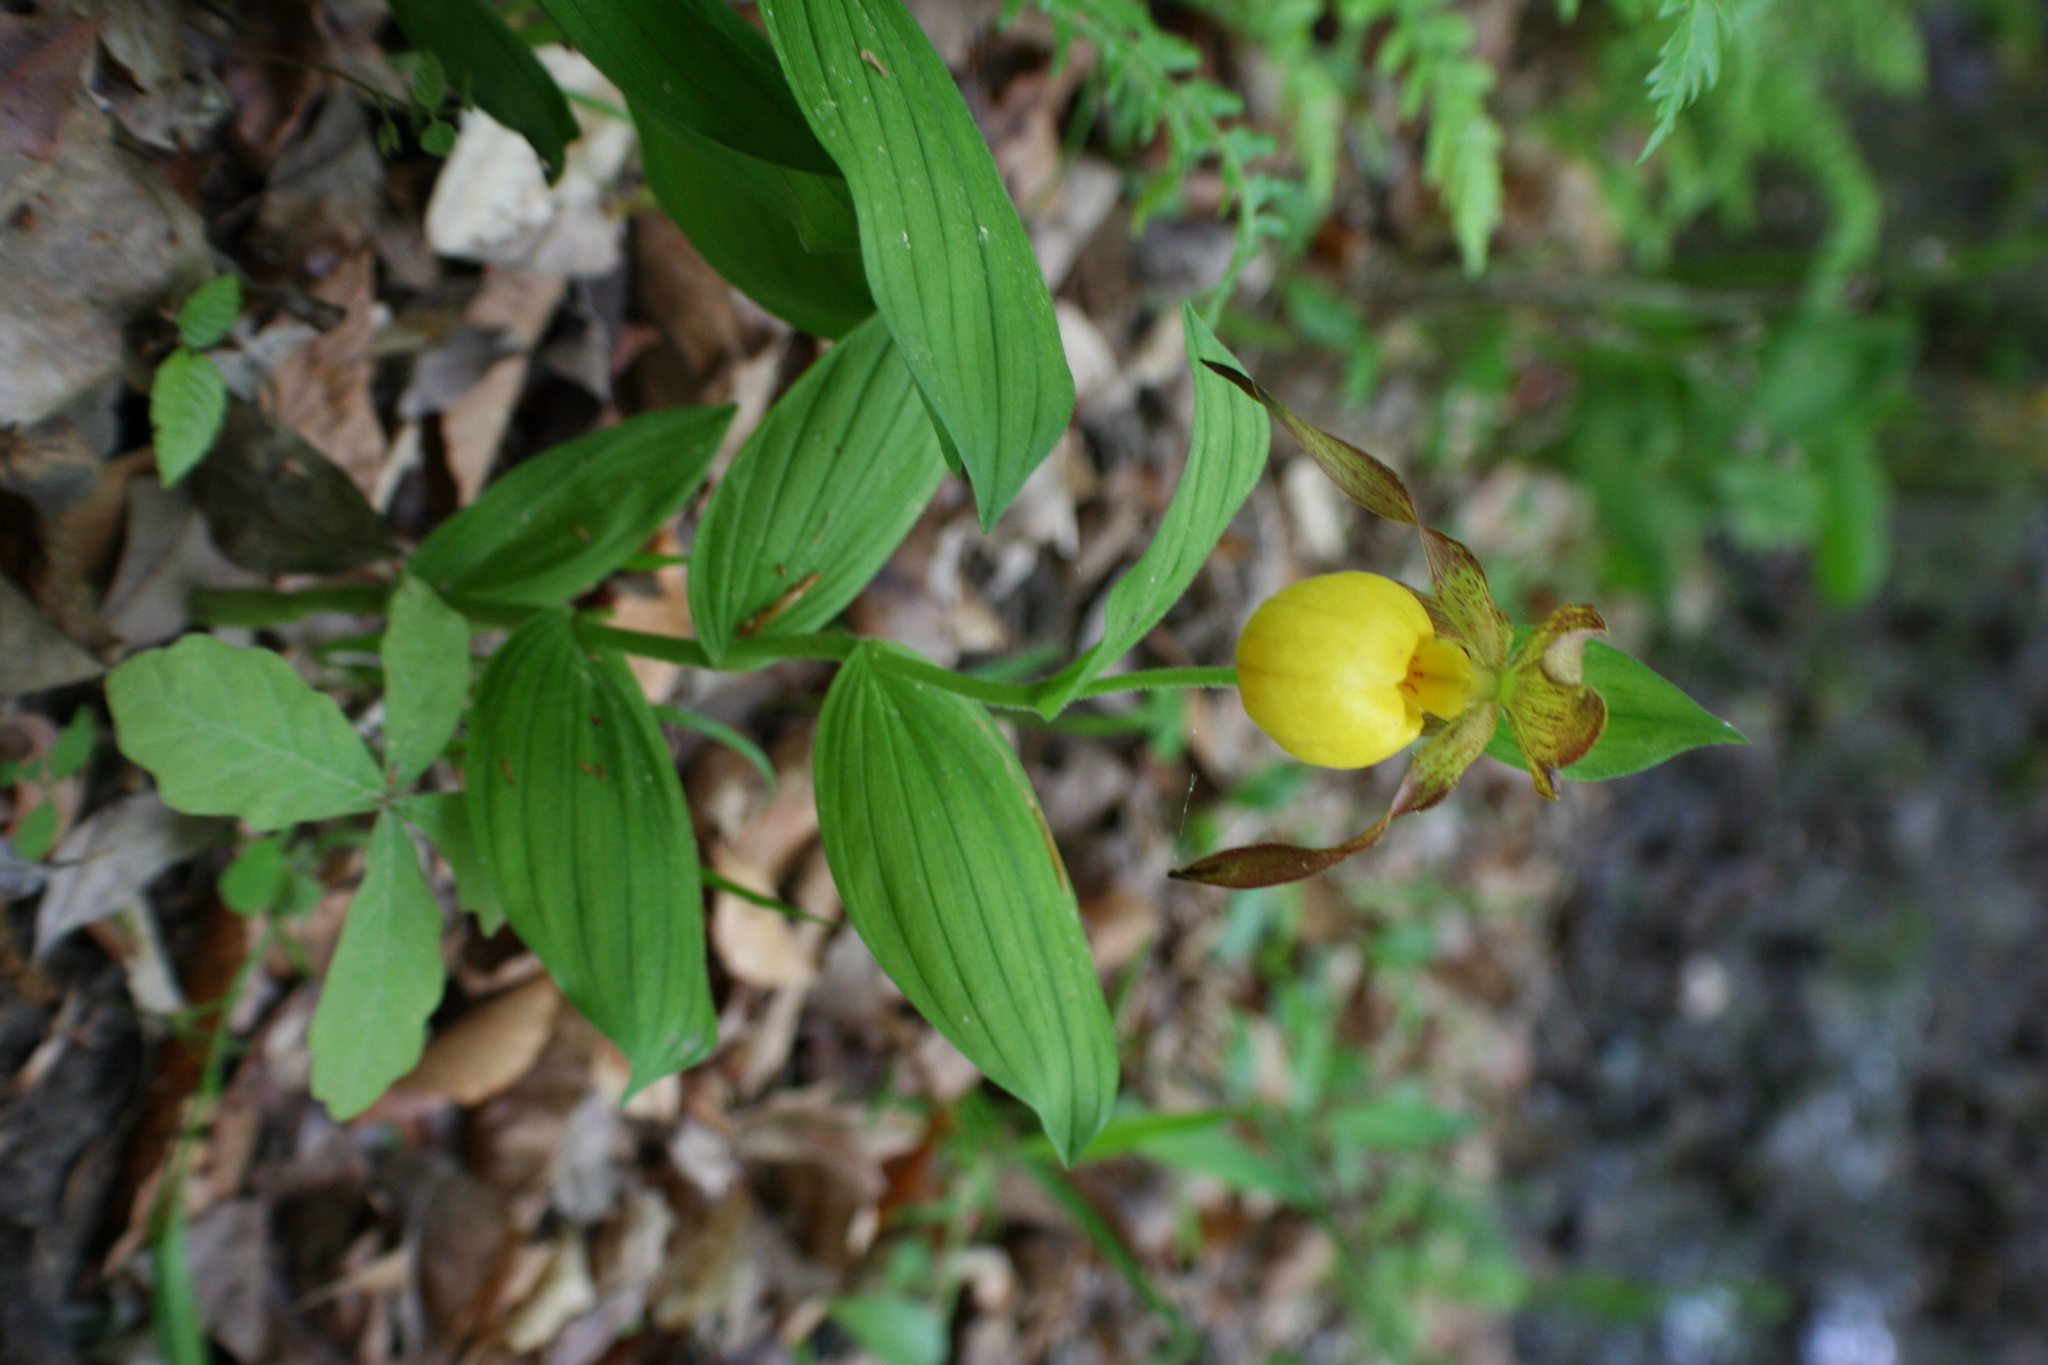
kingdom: Plantae
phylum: Tracheophyta
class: Liliopsida
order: Asparagales
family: Orchidaceae
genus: Cypripedium
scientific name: Cypripedium parviflorum
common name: American yellow lady's-slipper
